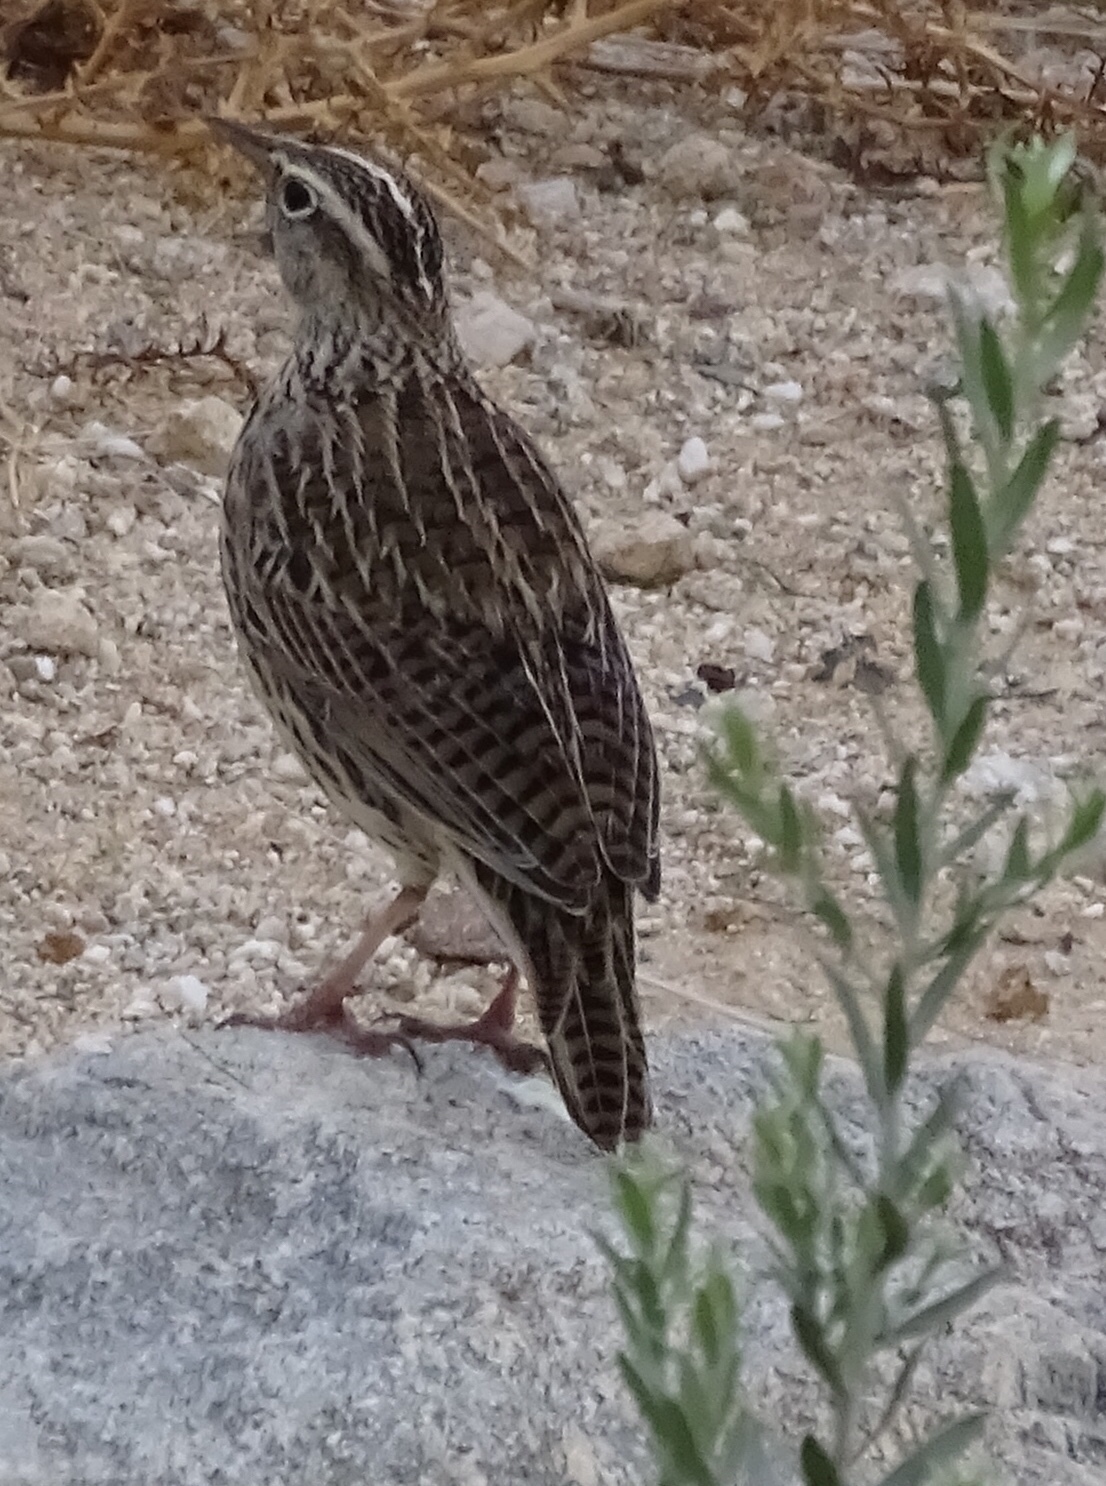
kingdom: Animalia
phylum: Chordata
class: Aves
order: Passeriformes
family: Icteridae
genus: Sturnella
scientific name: Sturnella neglecta
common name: Western meadowlark
